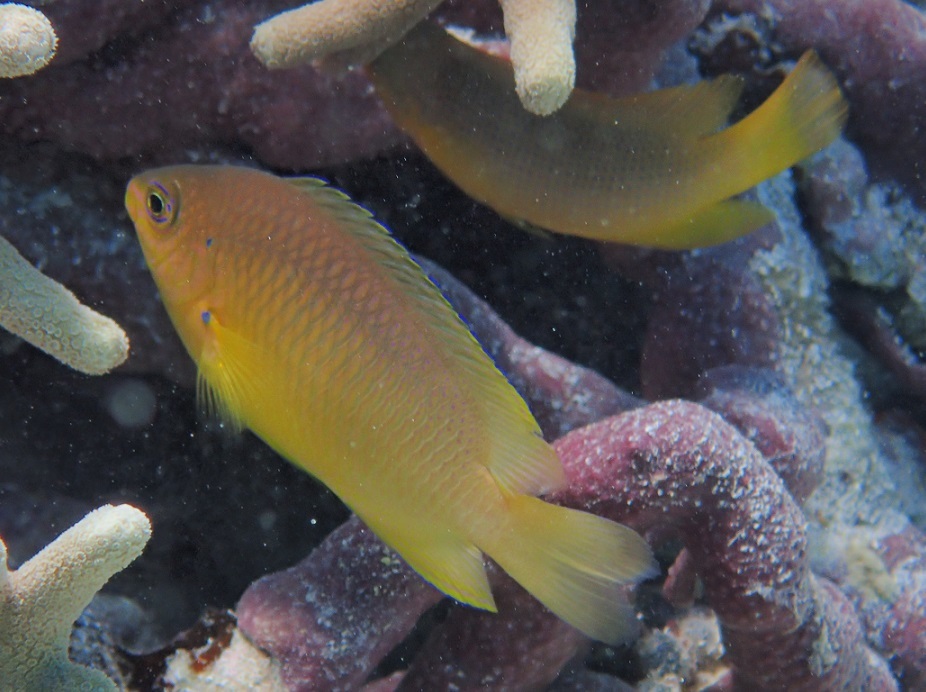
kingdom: Animalia
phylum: Chordata
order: Perciformes
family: Pomacentridae
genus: Pomacentrus
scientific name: Pomacentrus amboinensis
